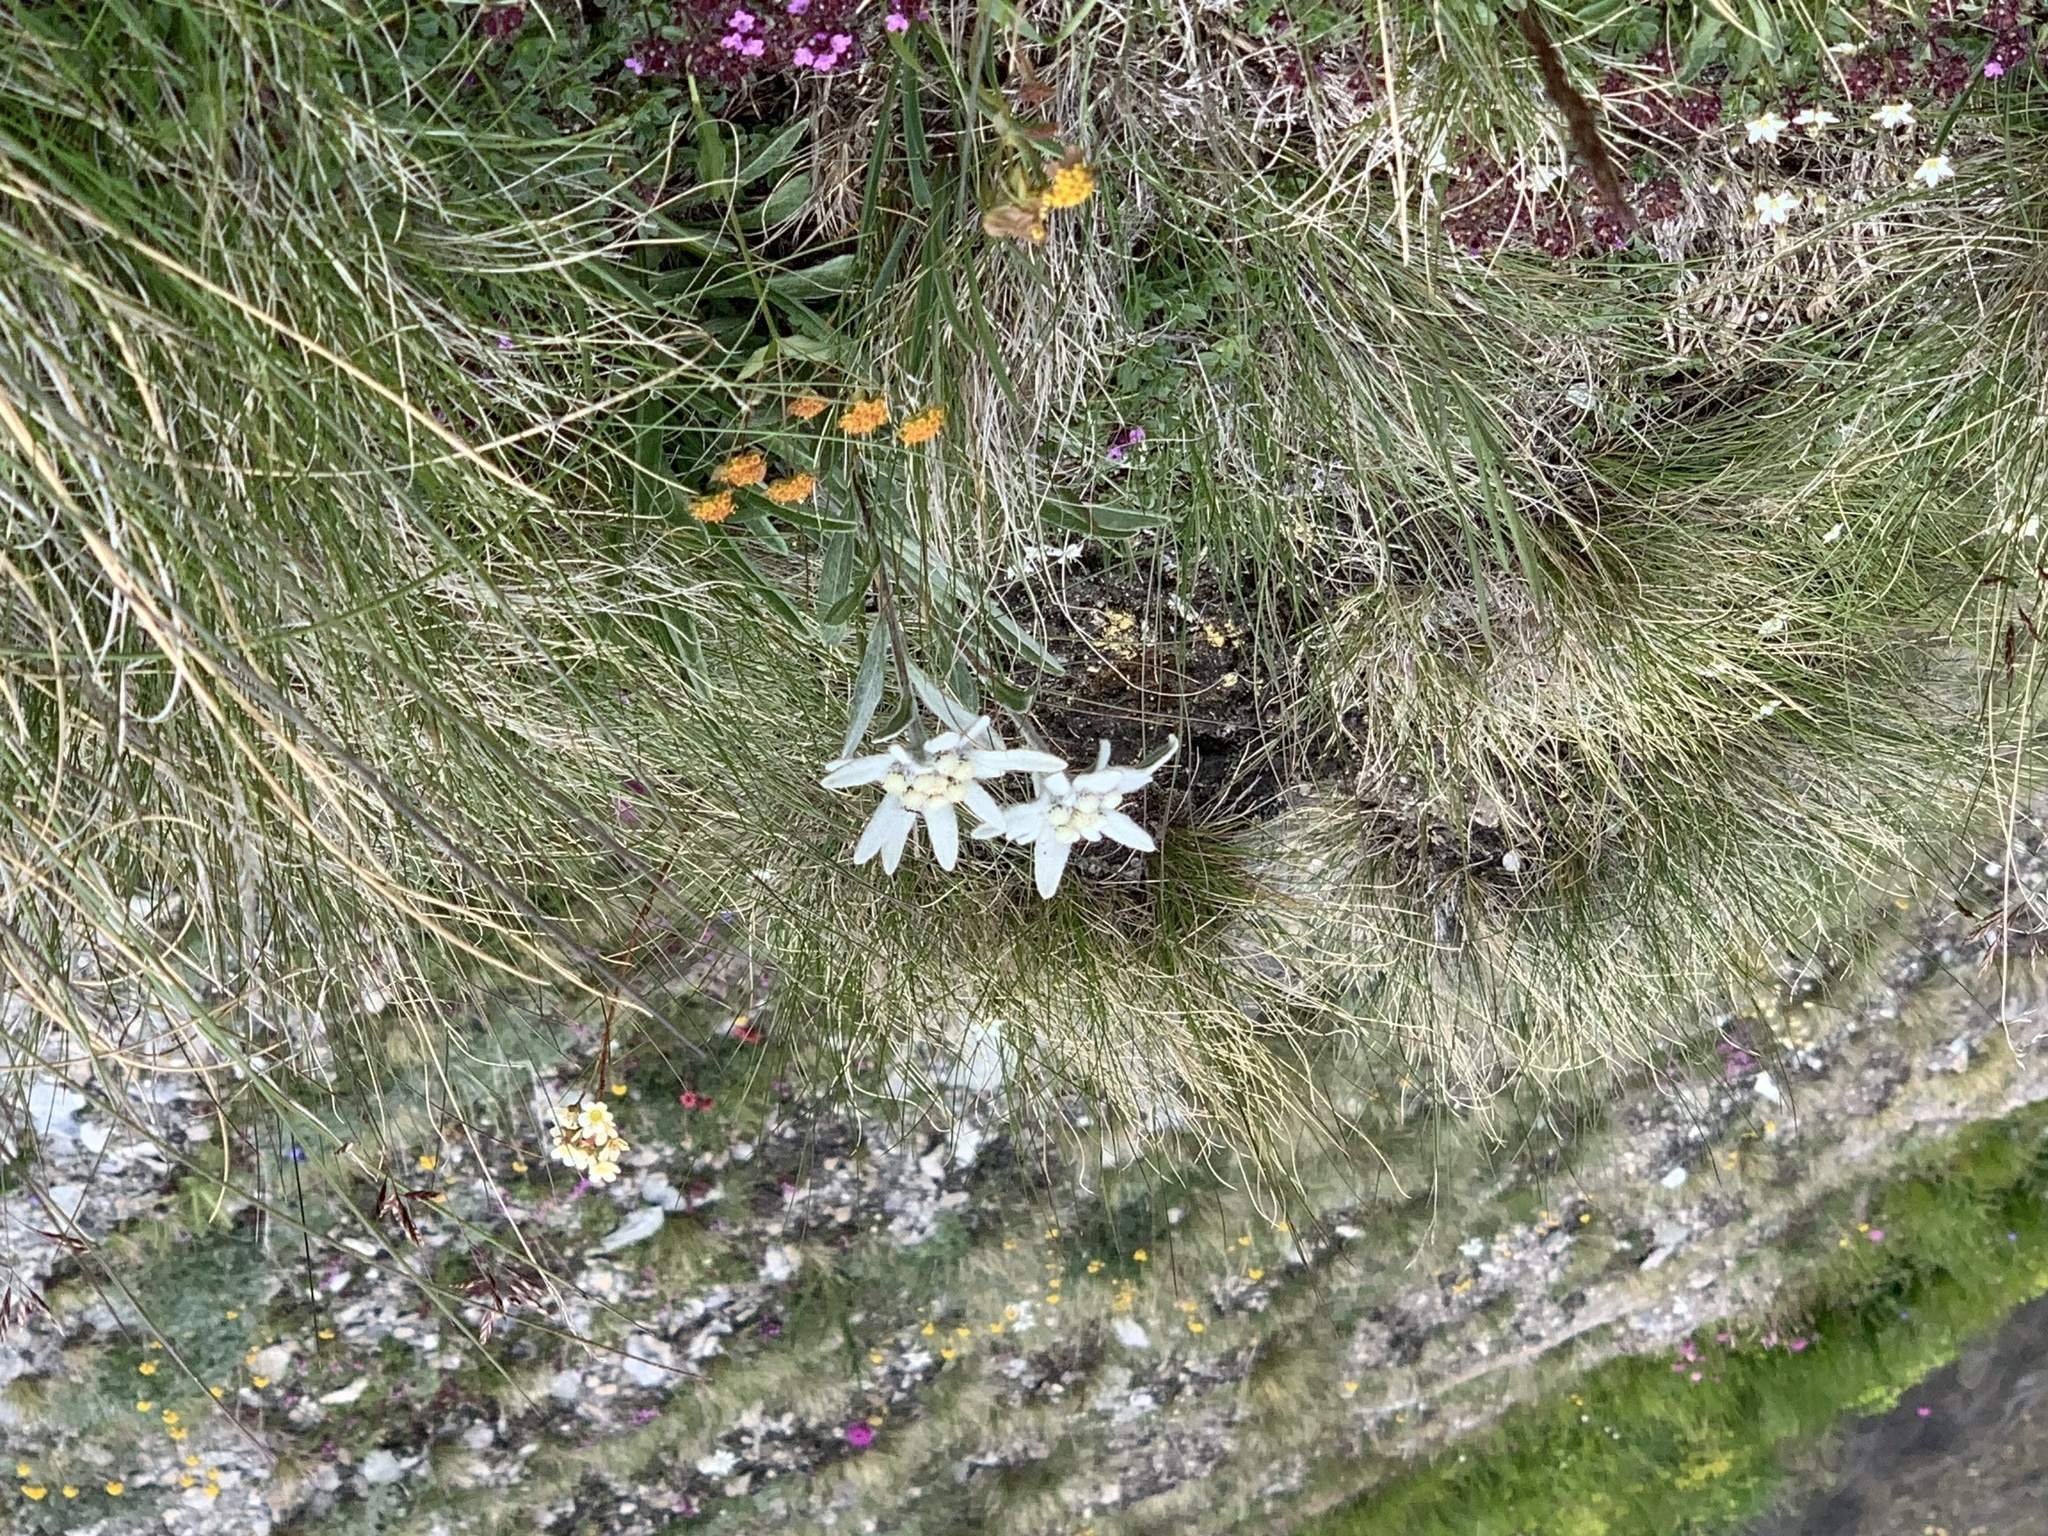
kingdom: Plantae
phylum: Tracheophyta
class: Magnoliopsida
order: Asterales
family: Asteraceae
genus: Leontopodium
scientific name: Leontopodium nivale
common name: Edelweiss
